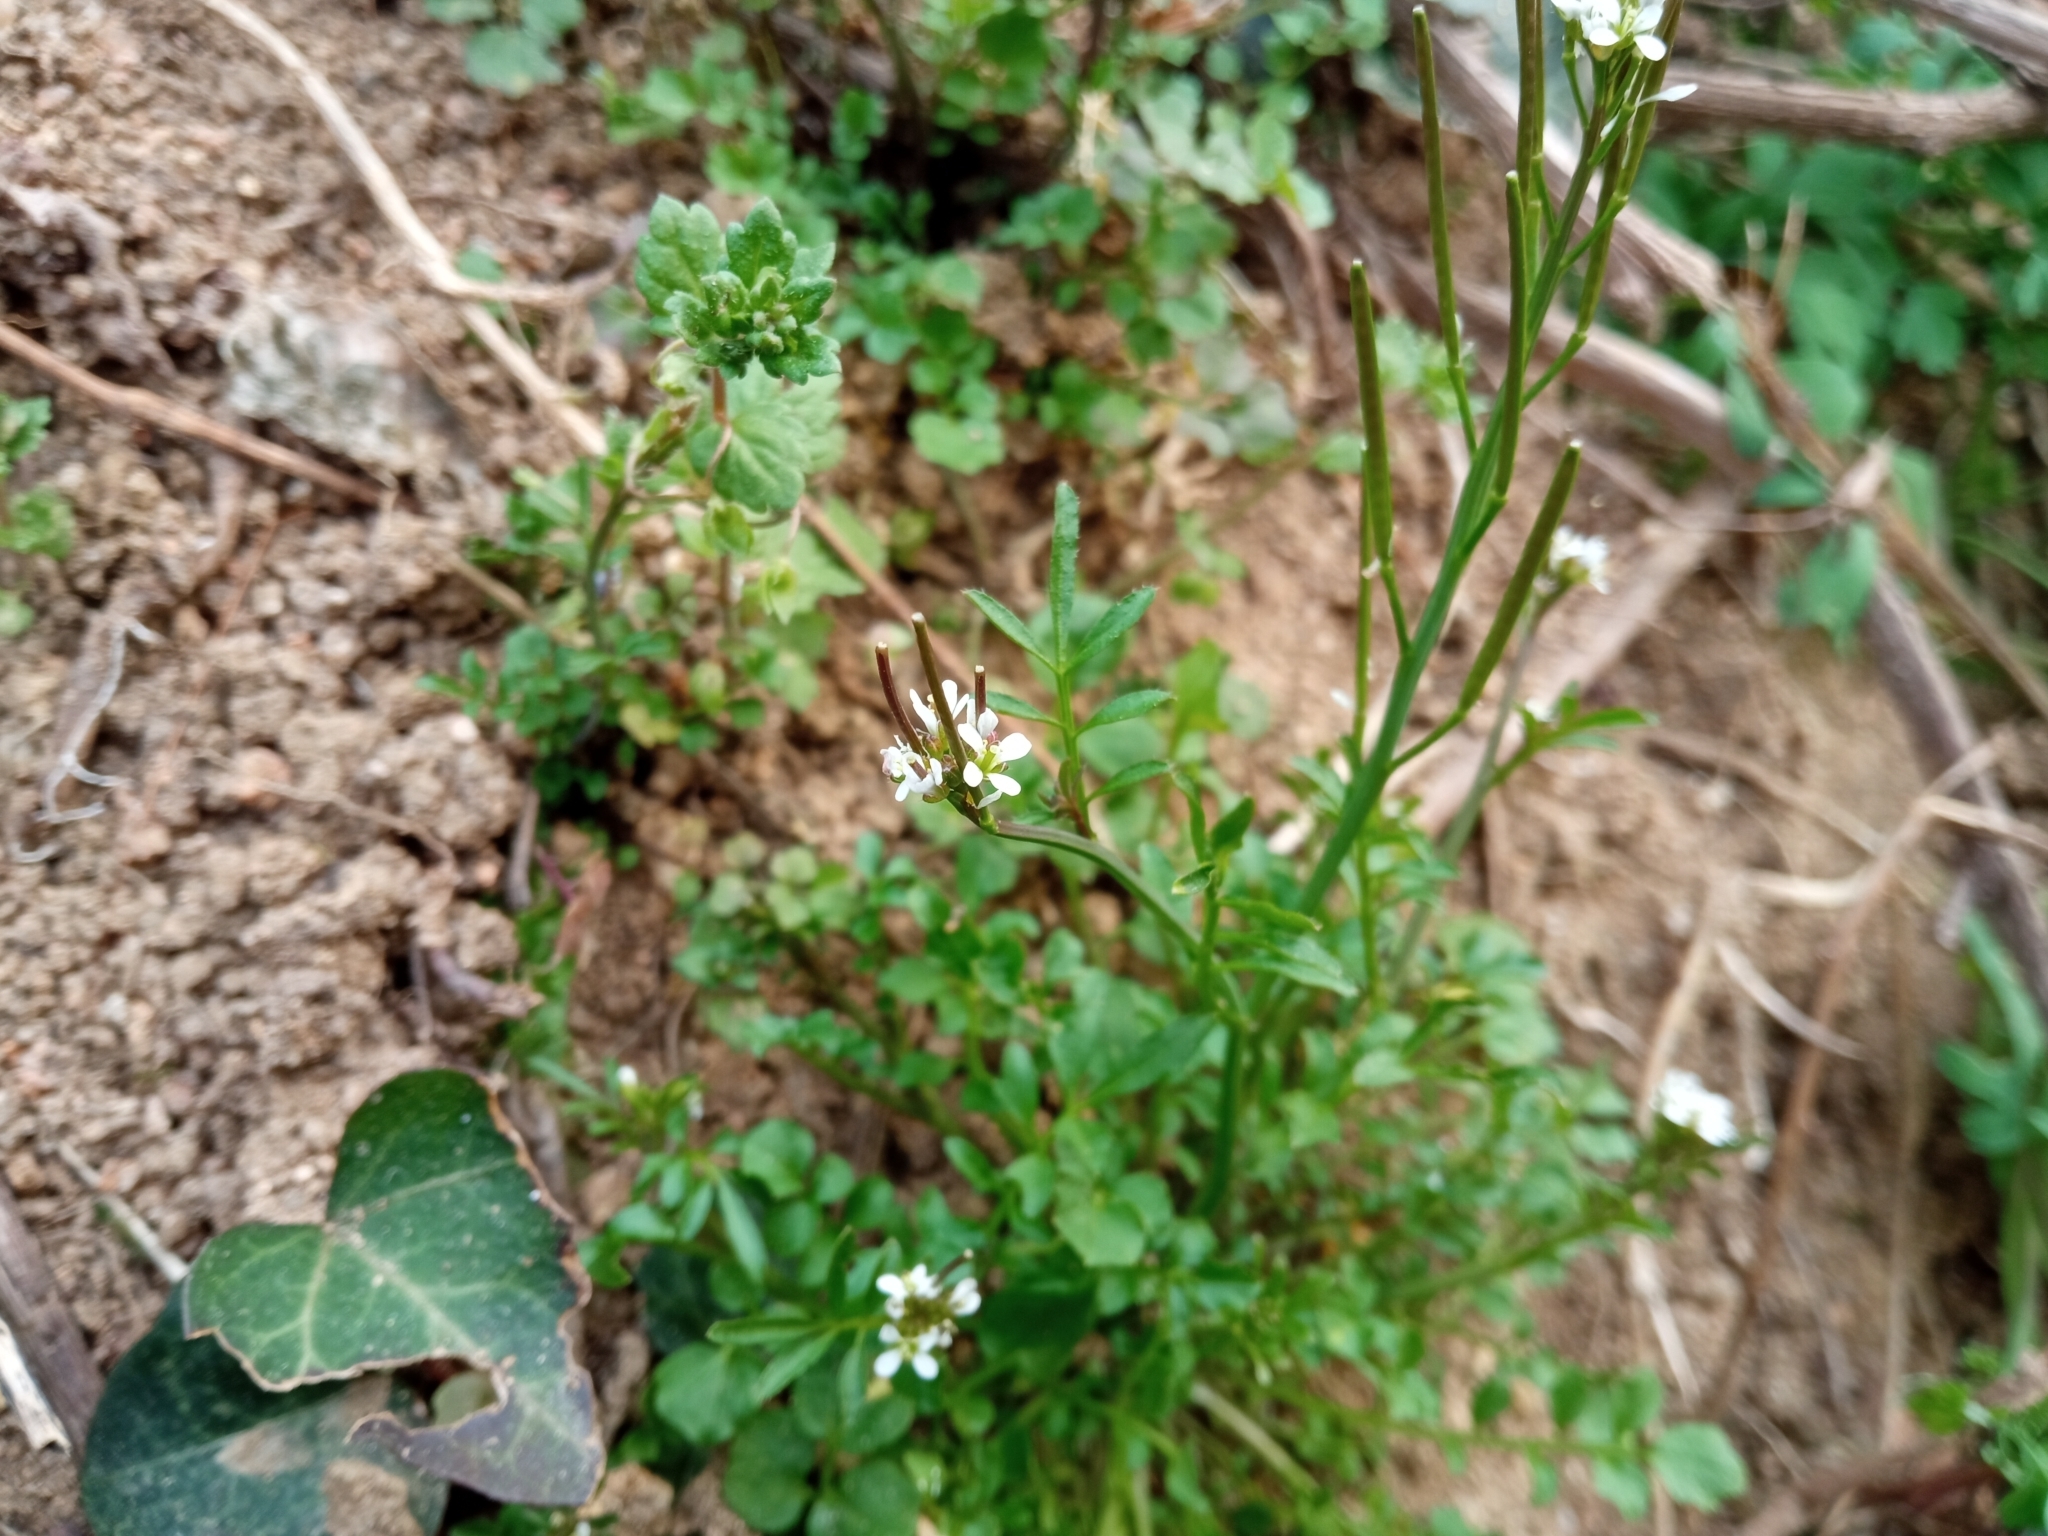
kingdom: Plantae
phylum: Tracheophyta
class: Magnoliopsida
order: Brassicales
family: Brassicaceae
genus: Cardamine
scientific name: Cardamine hirsuta
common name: Hairy bittercress
